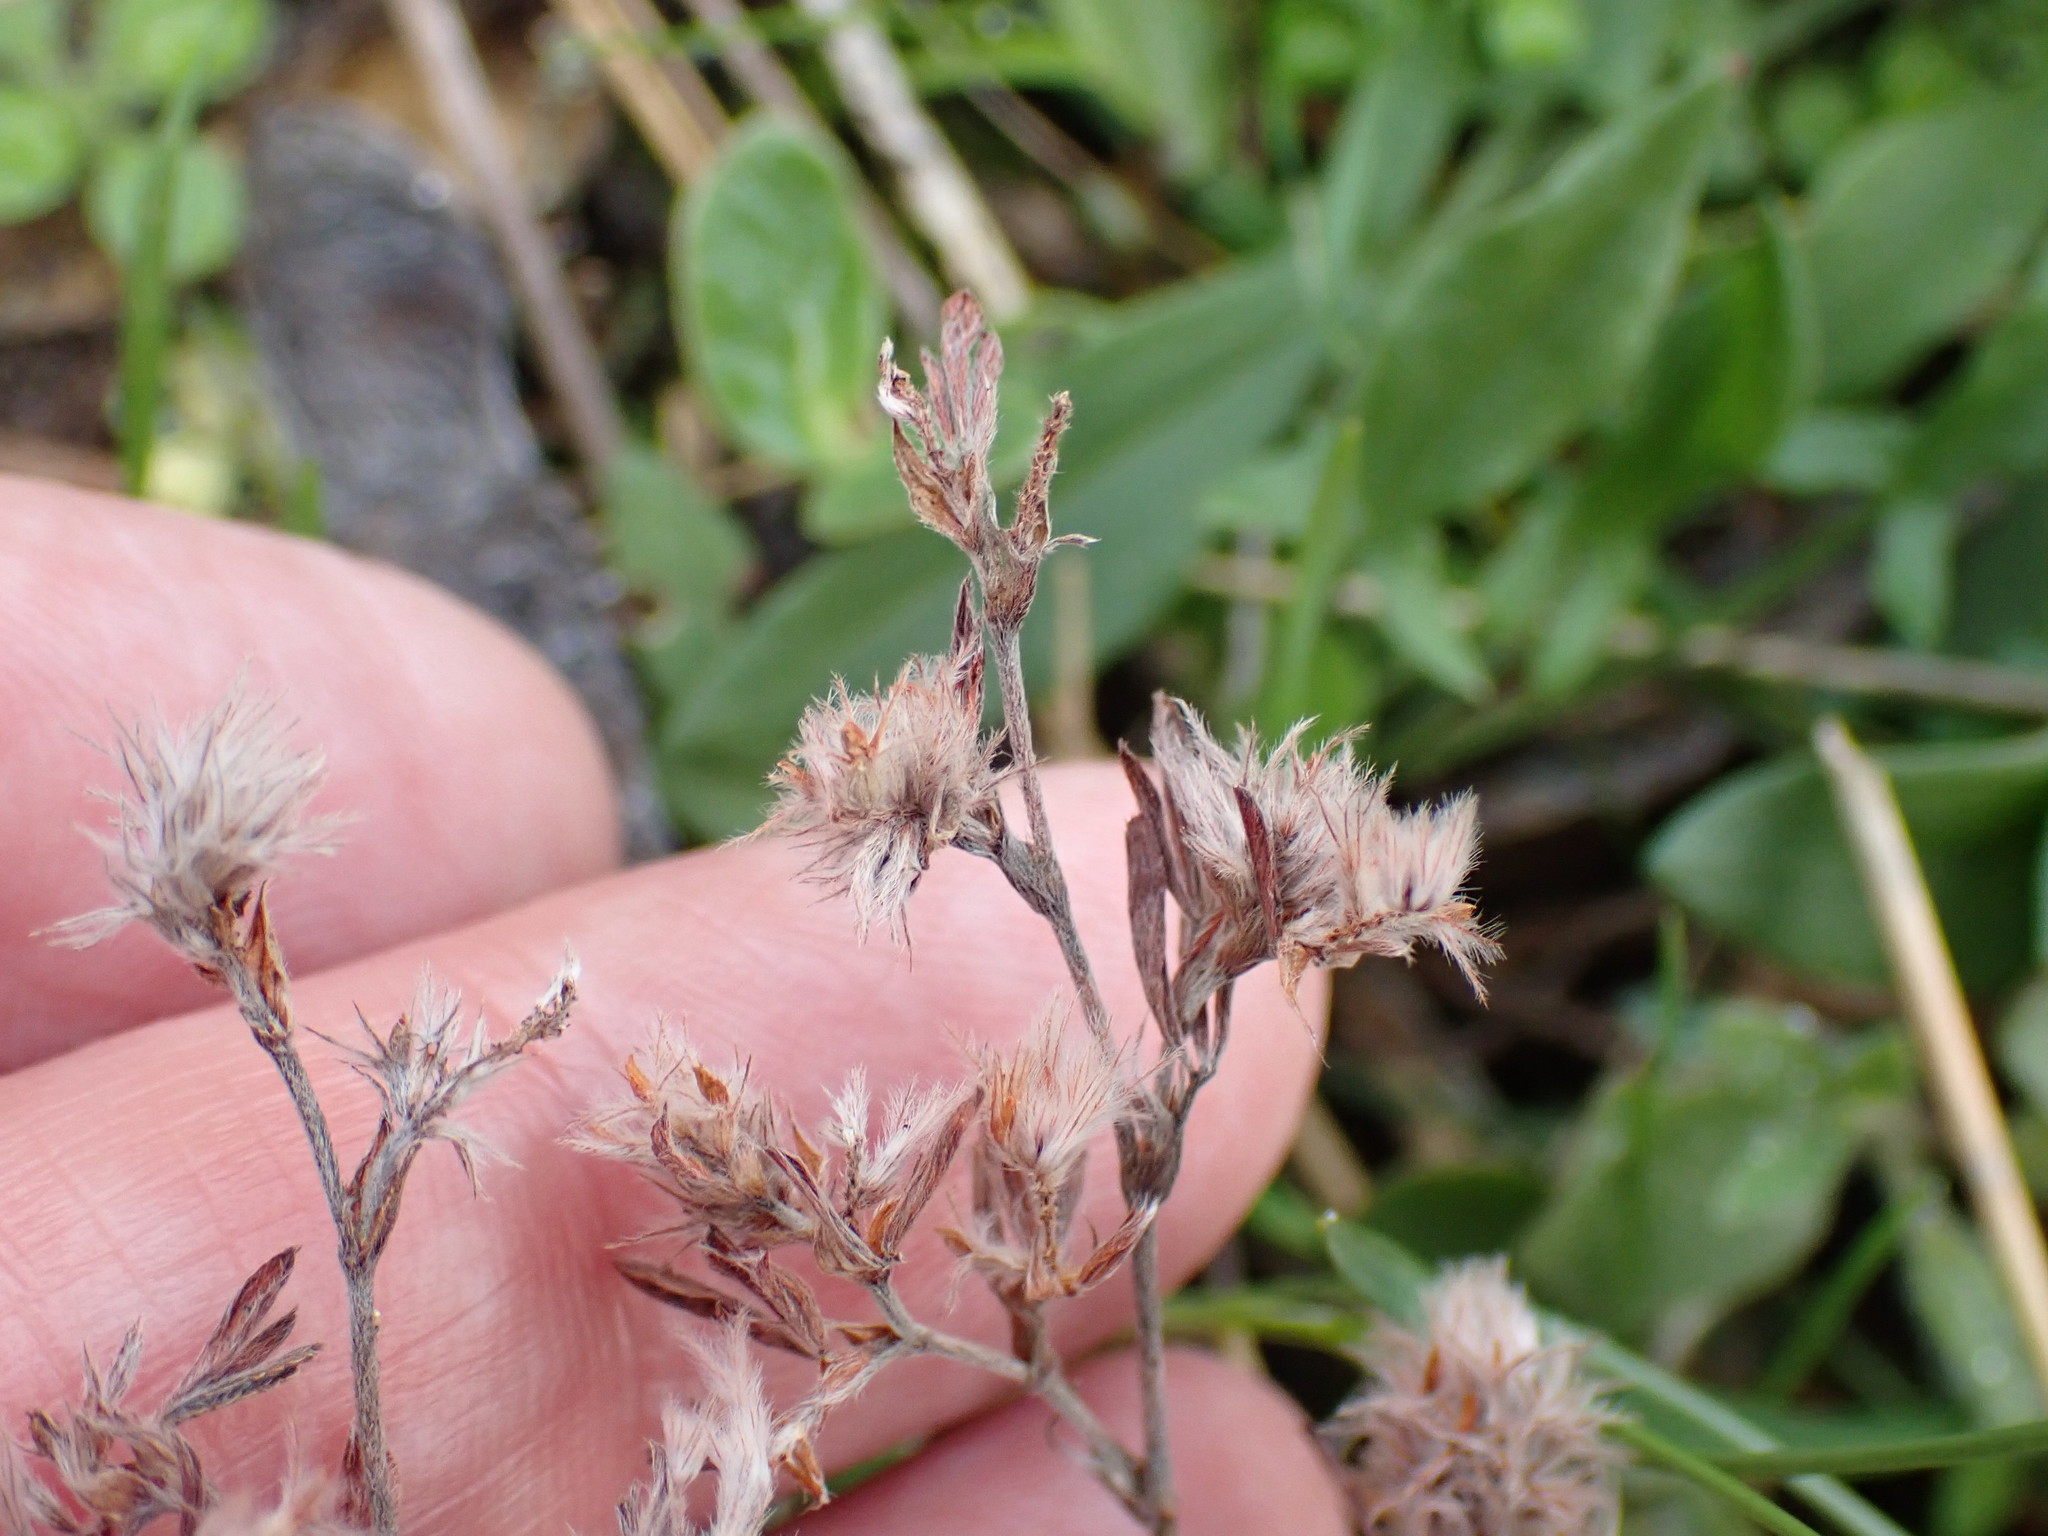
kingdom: Plantae
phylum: Tracheophyta
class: Magnoliopsida
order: Fabales
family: Fabaceae
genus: Trifolium
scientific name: Trifolium arvense
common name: Hare's-foot clover
